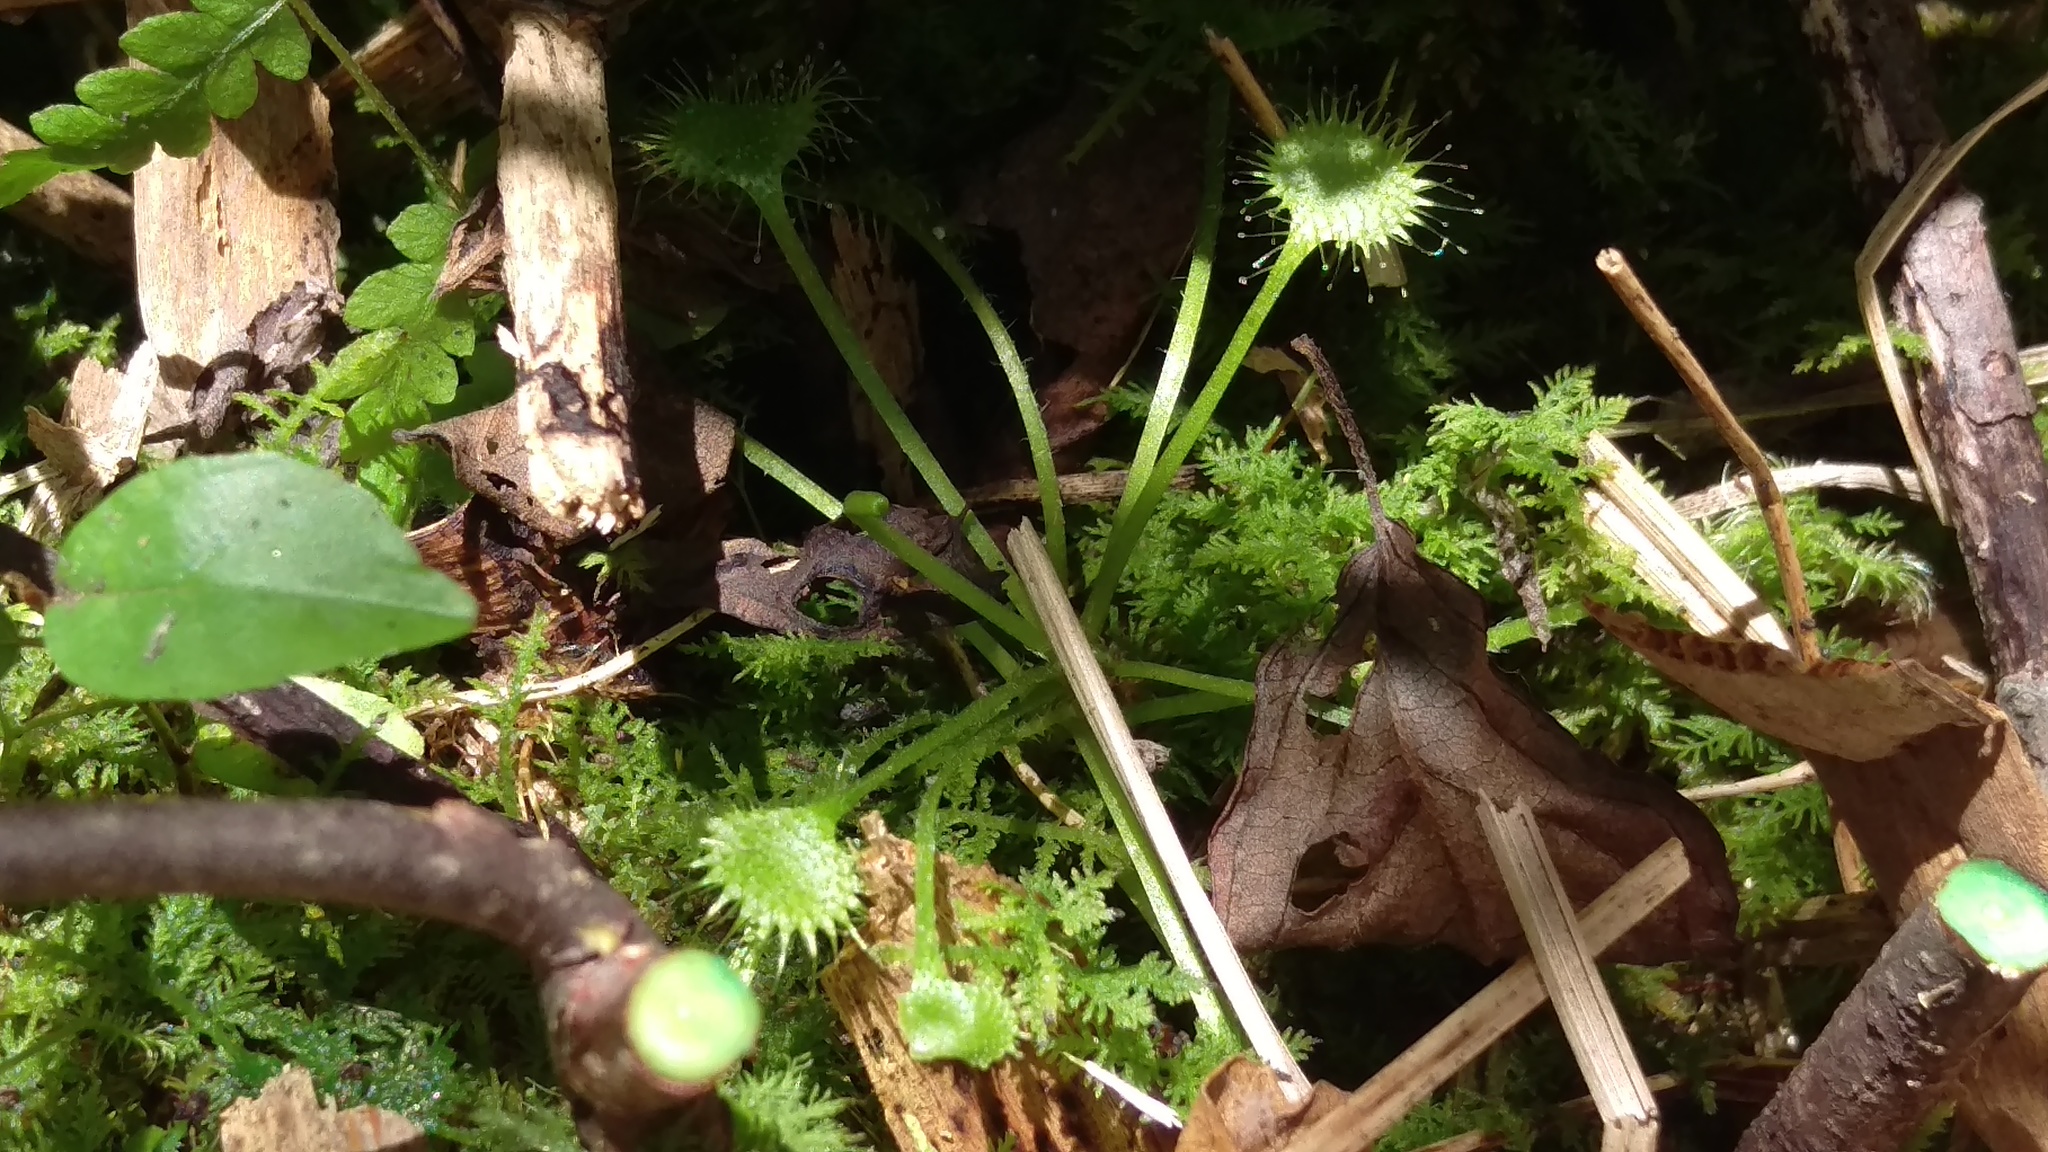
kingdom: Plantae
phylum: Tracheophyta
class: Magnoliopsida
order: Caryophyllales
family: Droseraceae
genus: Drosera
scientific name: Drosera rotundifolia
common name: Round-leaved sundew
